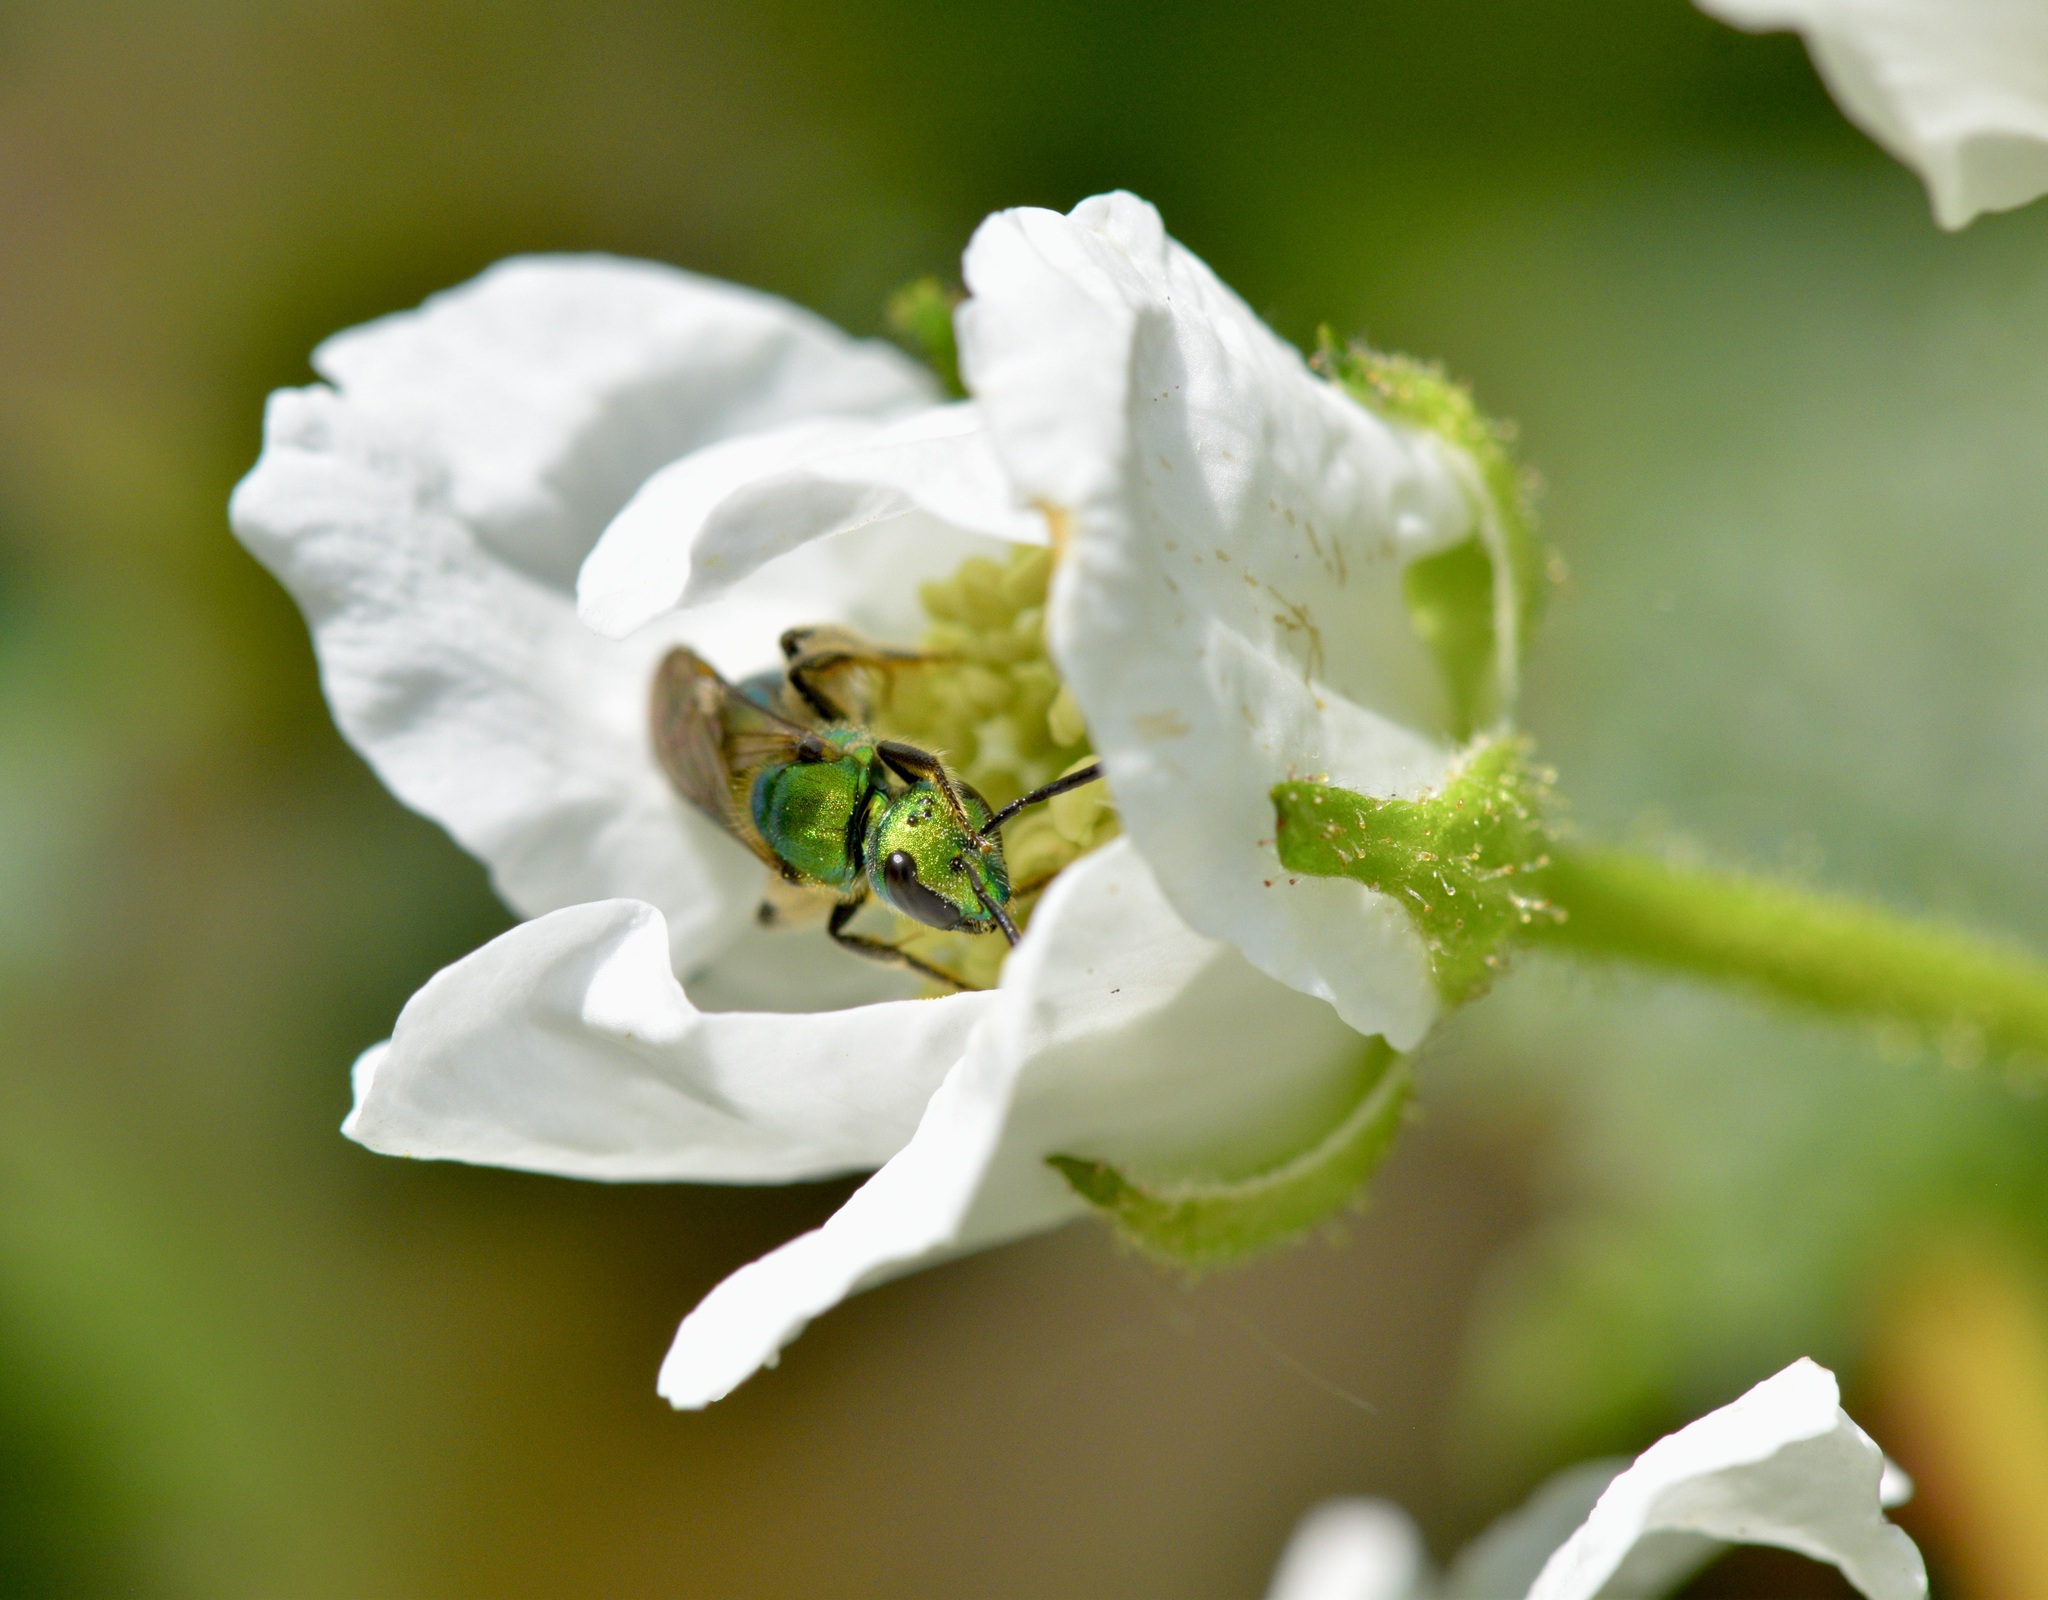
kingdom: Animalia
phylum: Arthropoda
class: Insecta
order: Hymenoptera
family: Halictidae
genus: Augochlora
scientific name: Augochlora pura
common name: Pure green sweat bee
